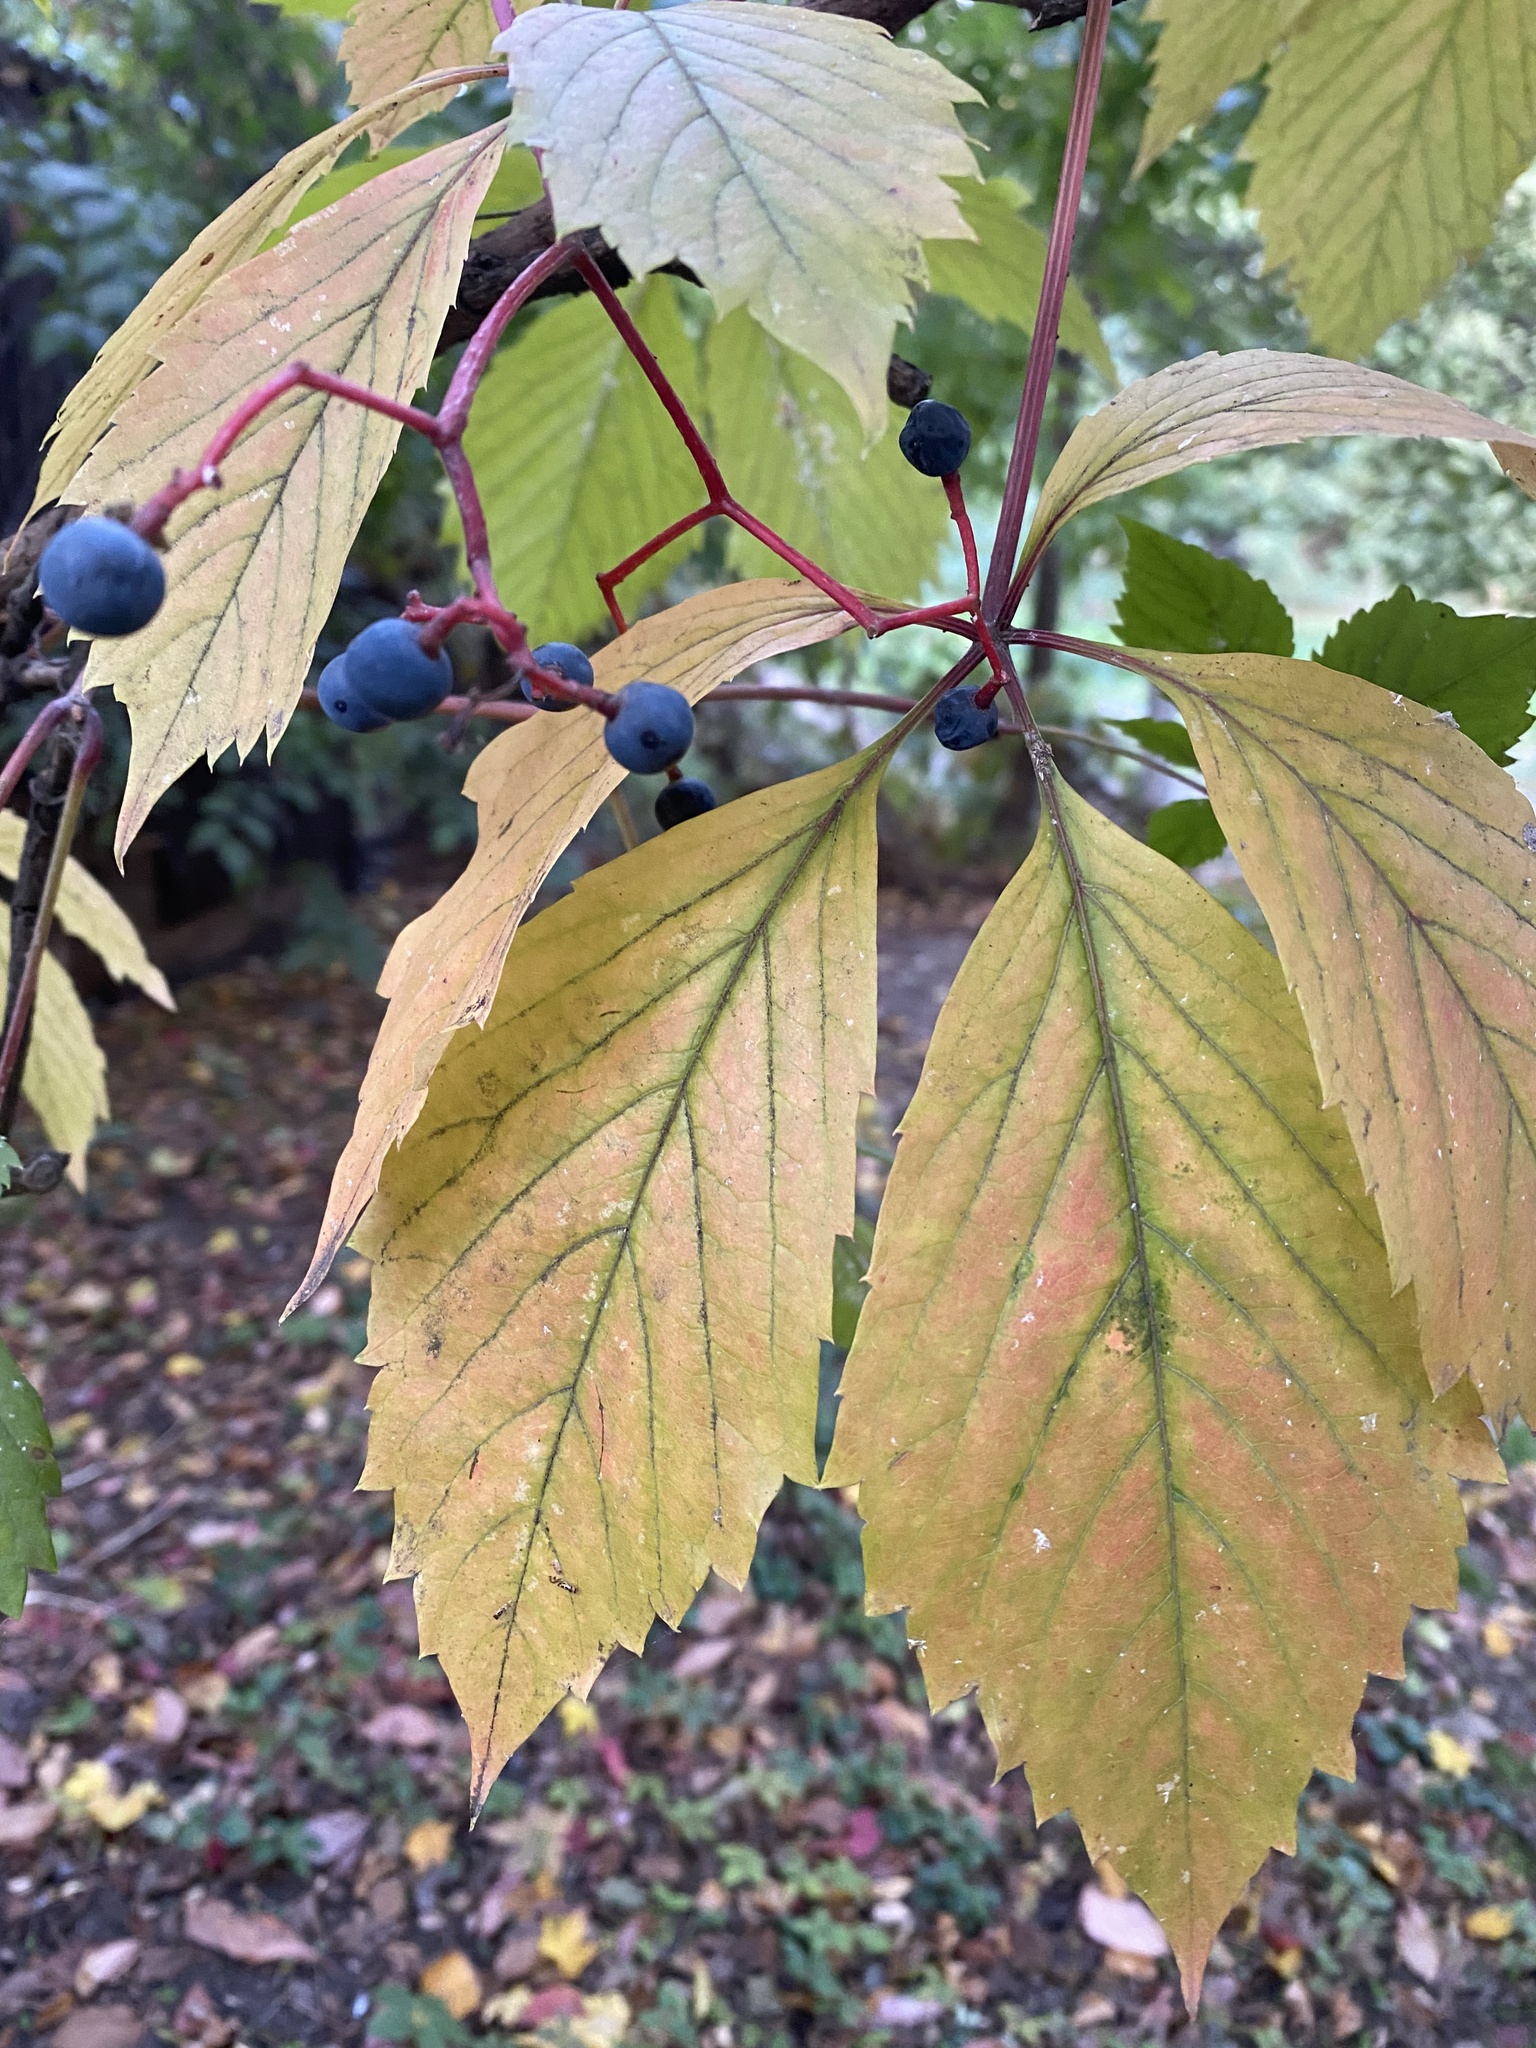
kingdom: Plantae
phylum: Tracheophyta
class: Magnoliopsida
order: Vitales
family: Vitaceae
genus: Parthenocissus
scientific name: Parthenocissus inserta
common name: False virginia-creeper
